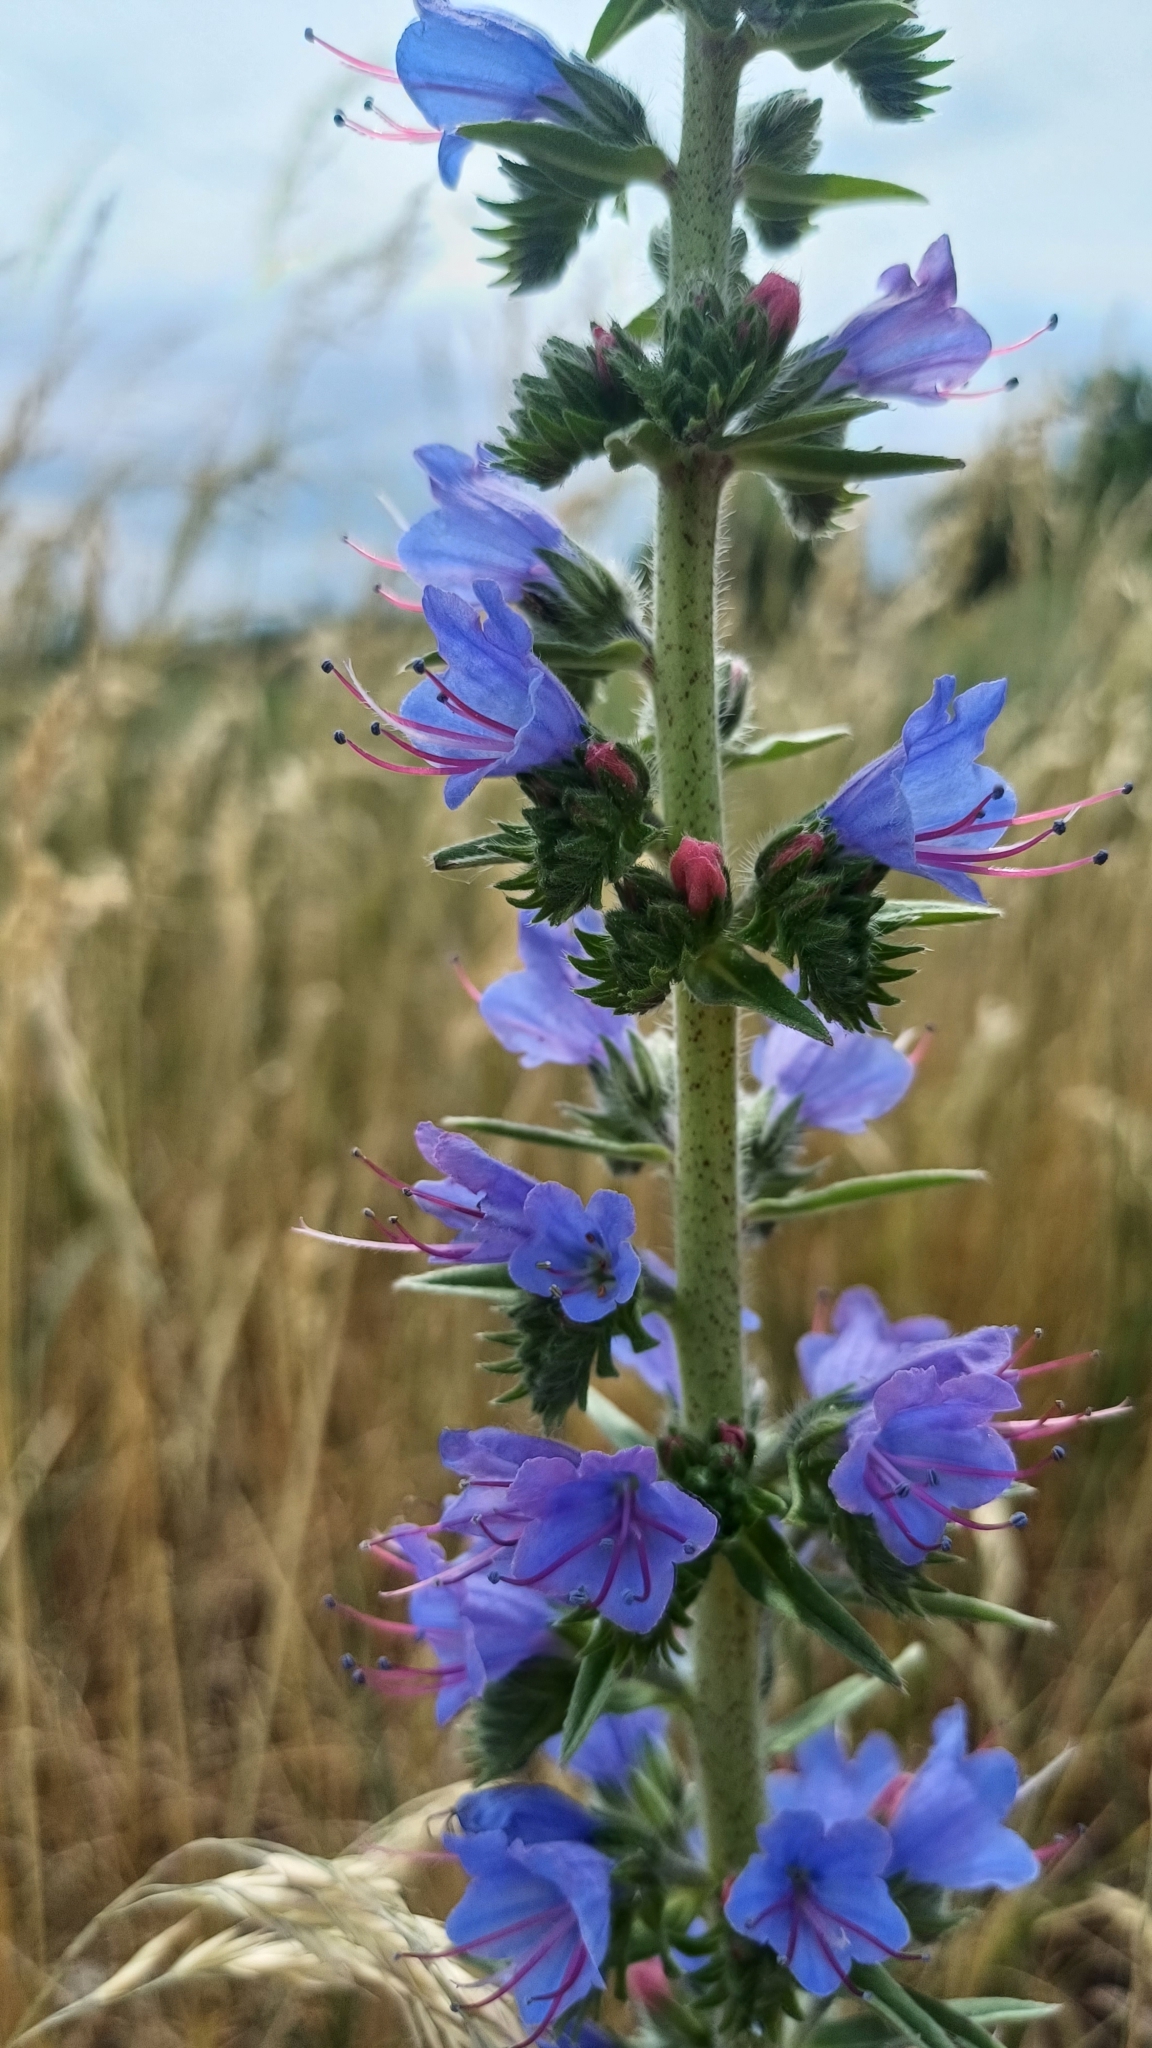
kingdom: Plantae
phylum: Tracheophyta
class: Magnoliopsida
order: Boraginales
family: Boraginaceae
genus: Echium
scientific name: Echium vulgare
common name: Common viper's bugloss
